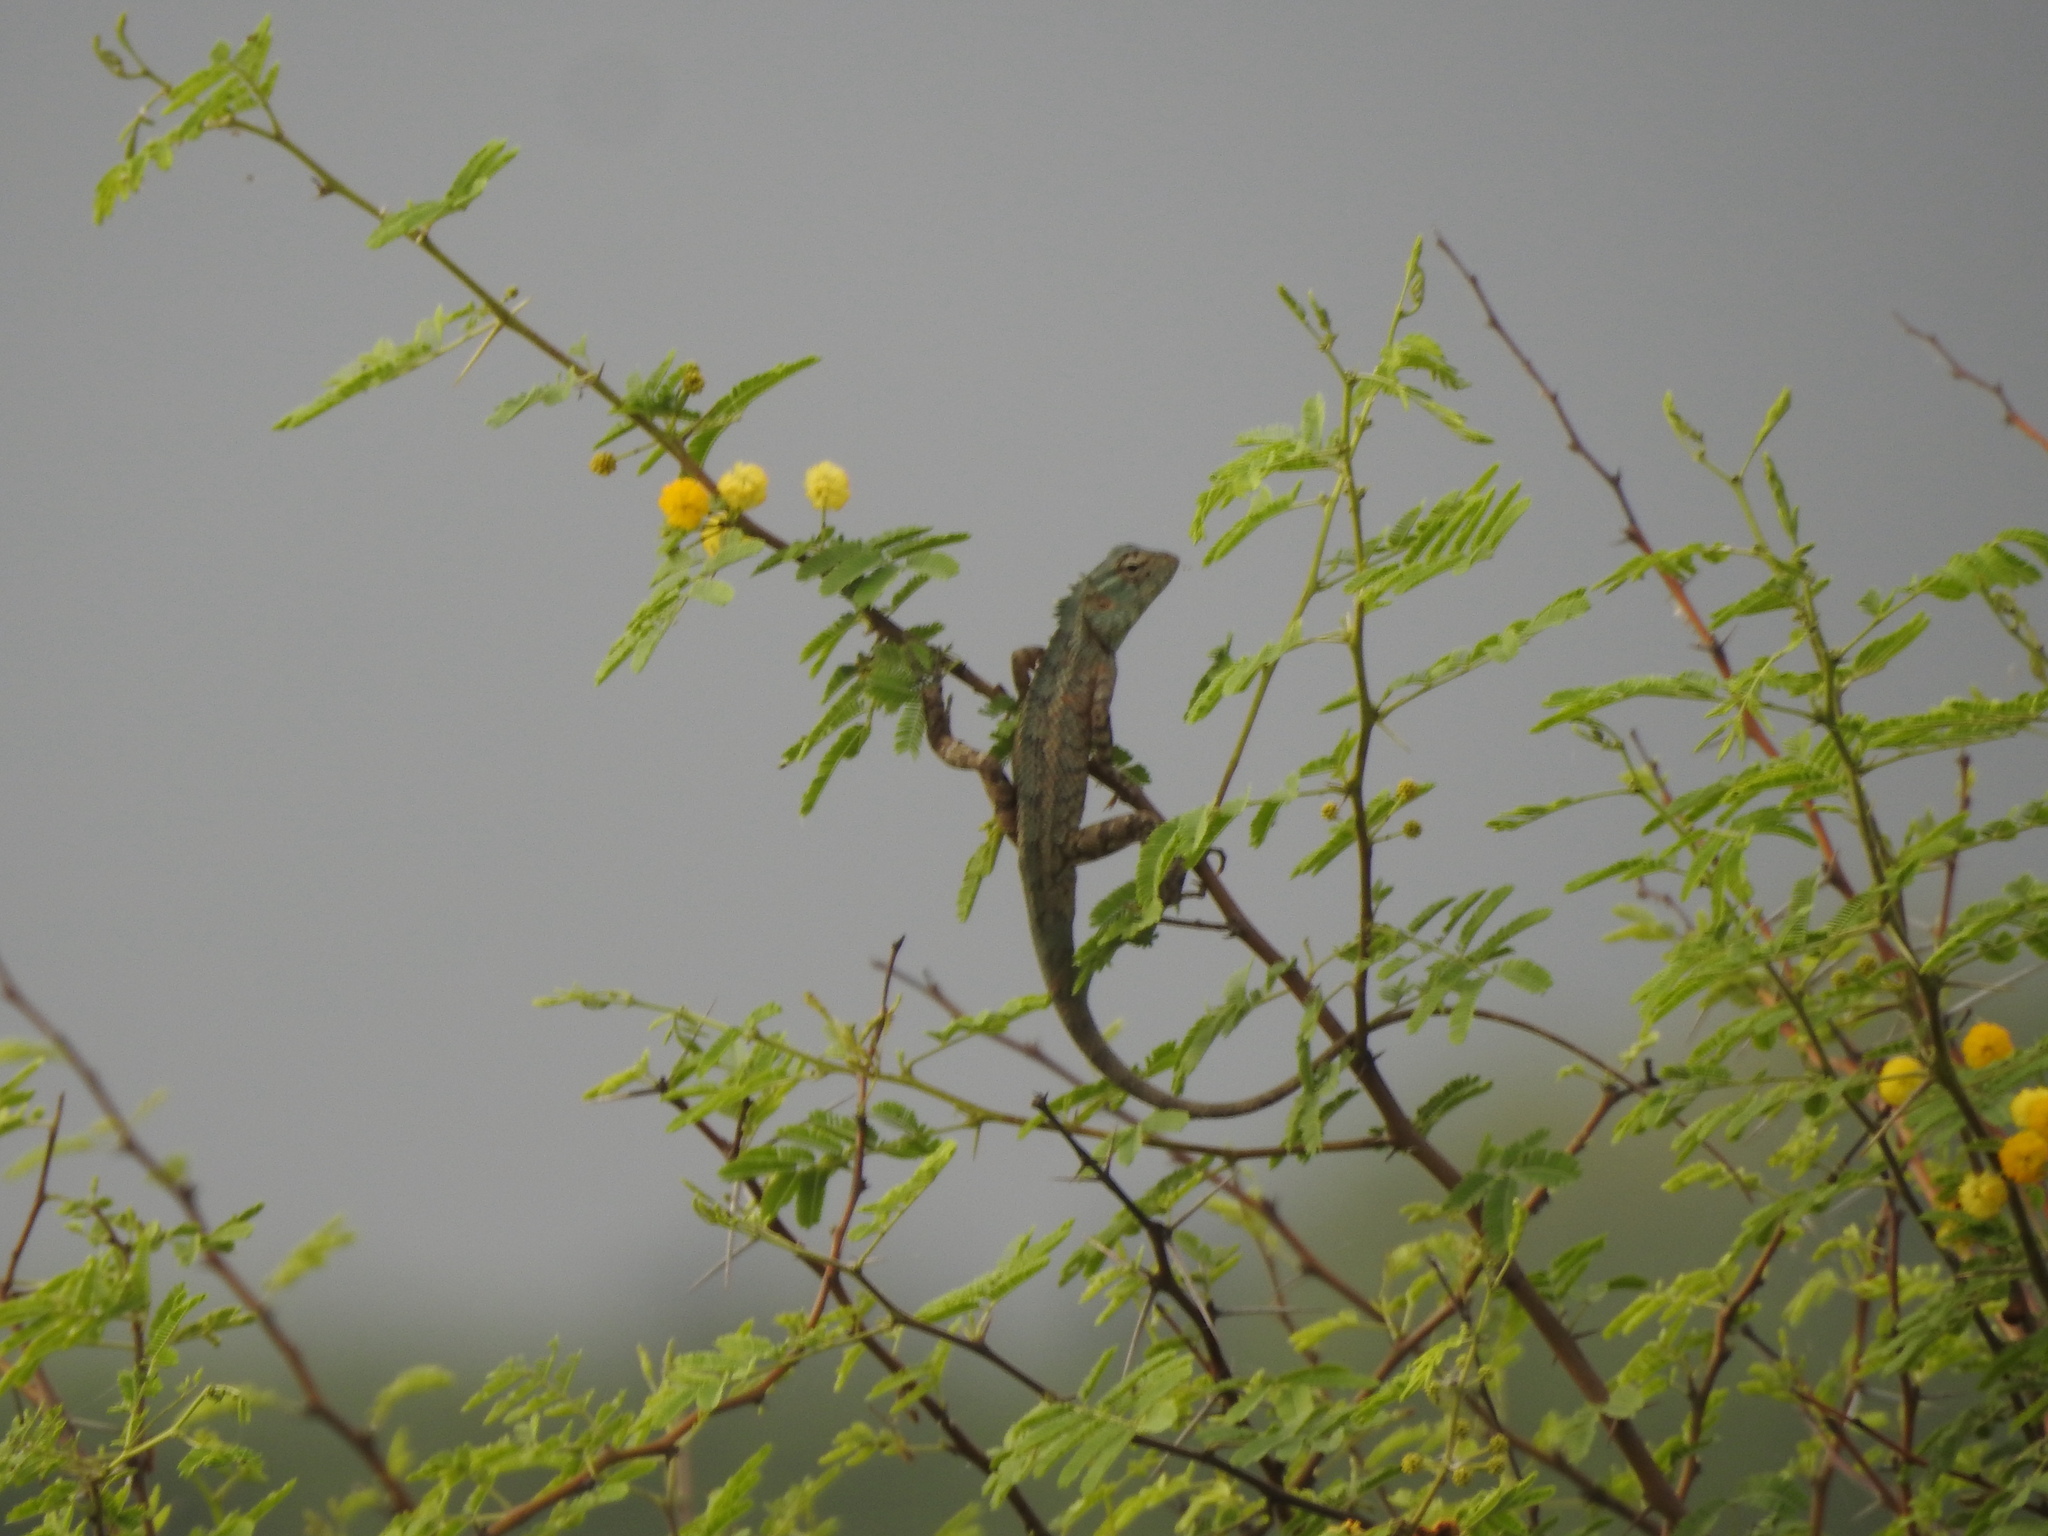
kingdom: Animalia
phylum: Chordata
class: Squamata
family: Agamidae
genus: Calotes
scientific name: Calotes versicolor
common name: Oriental garden lizard
